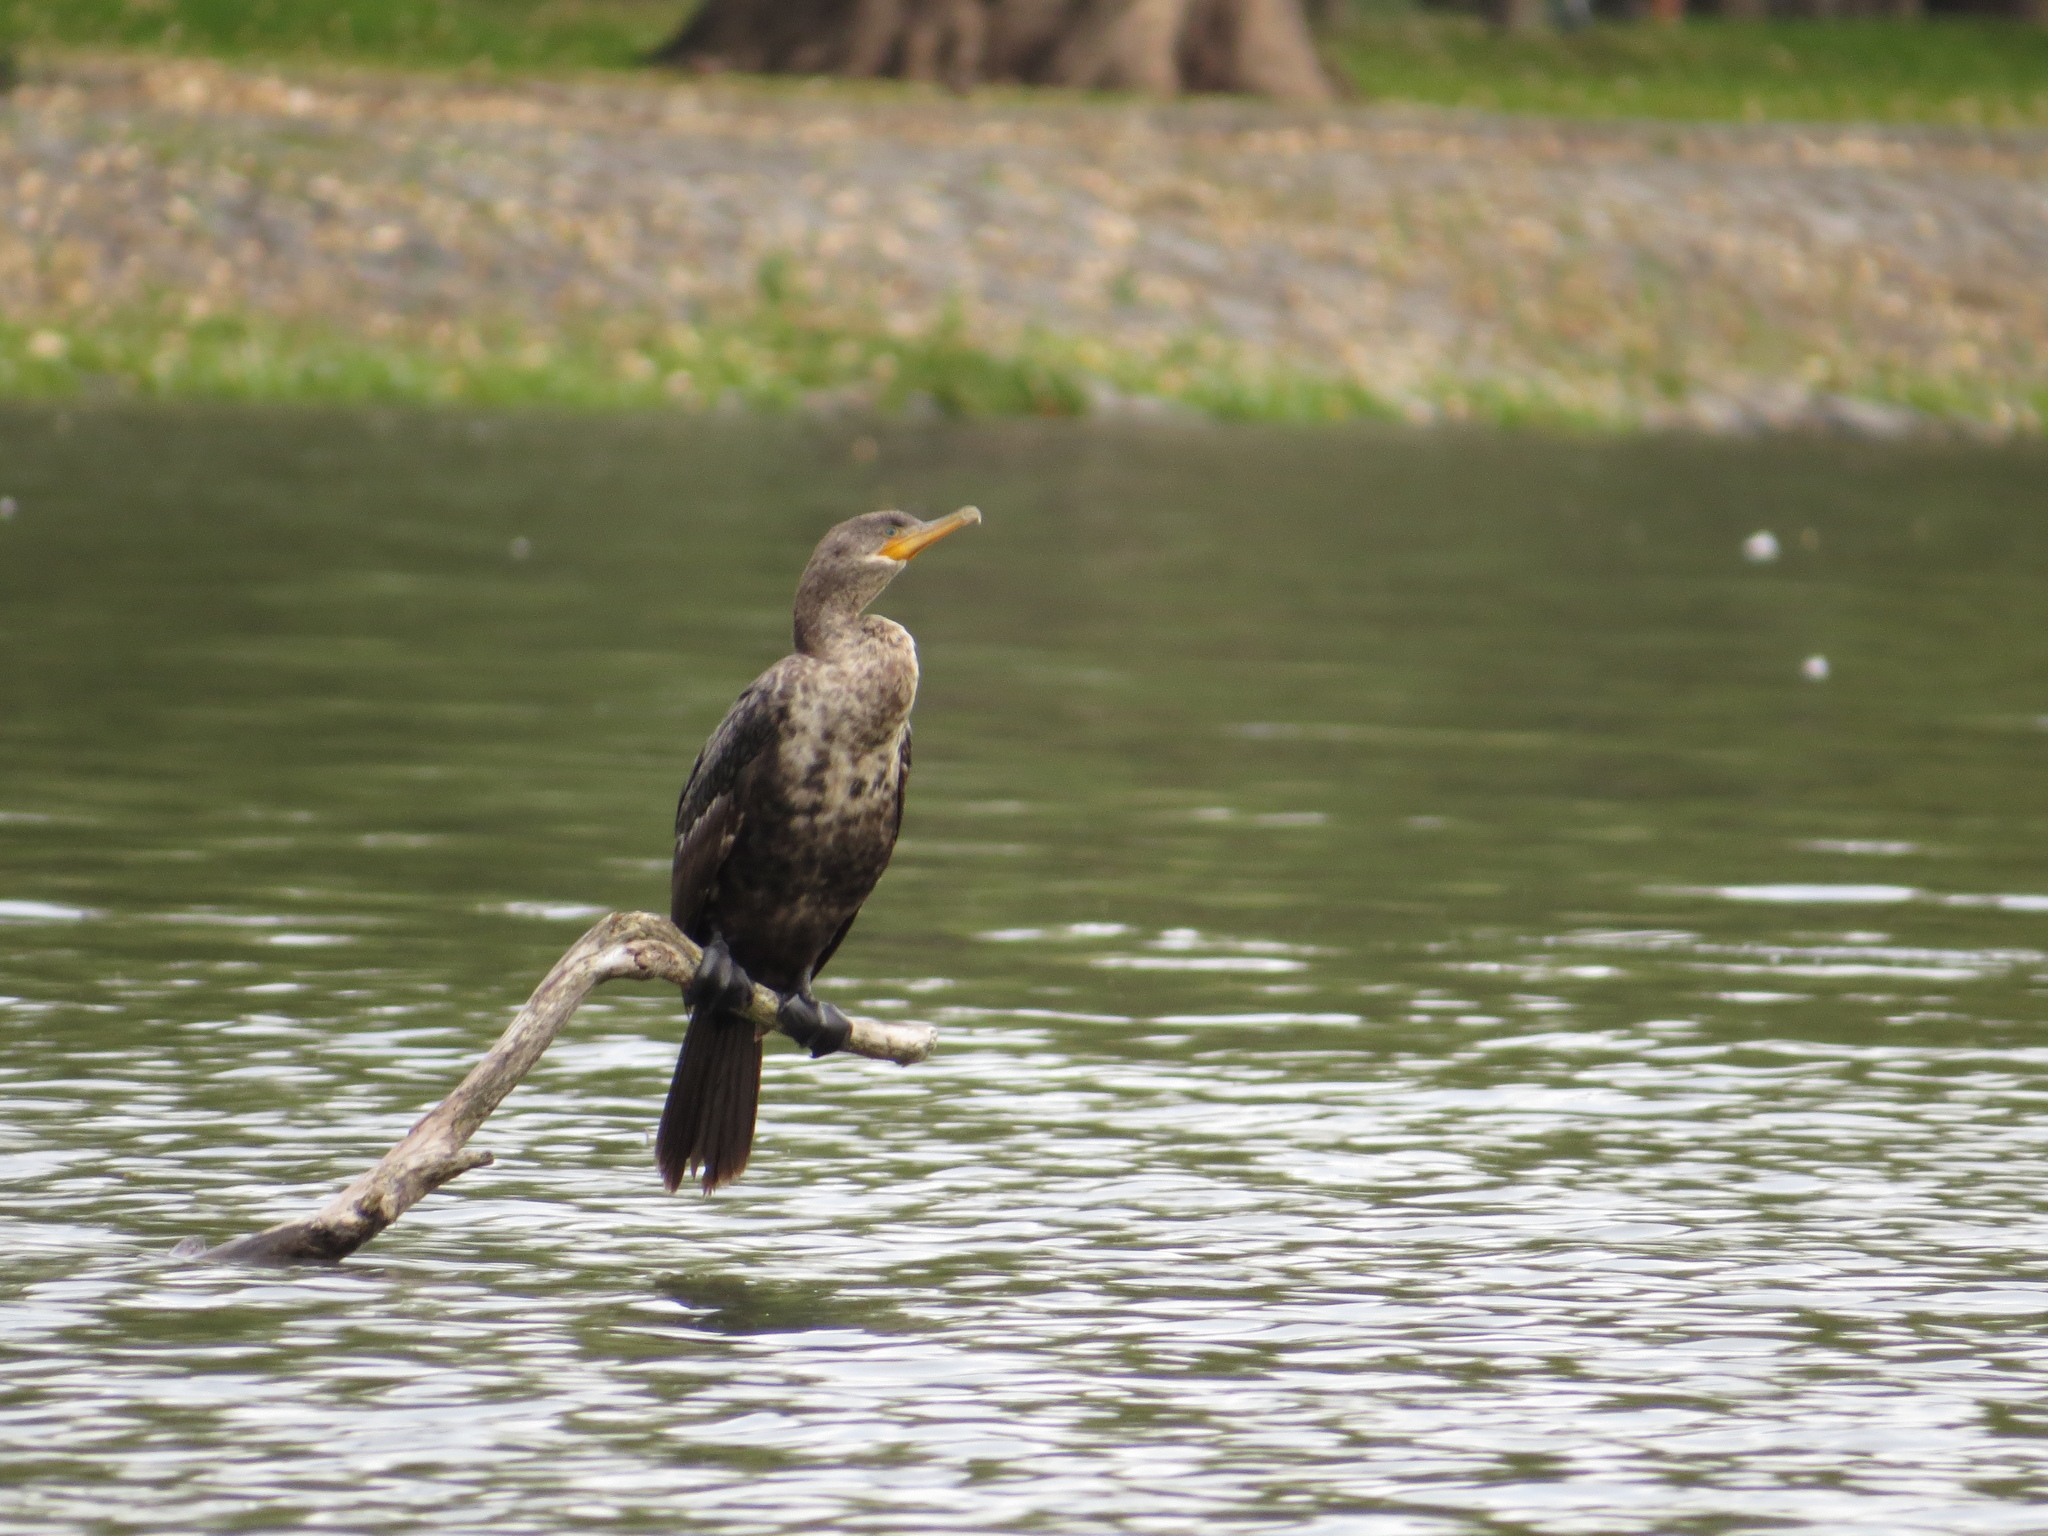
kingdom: Animalia
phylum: Chordata
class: Aves
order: Suliformes
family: Phalacrocoracidae
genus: Phalacrocorax
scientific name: Phalacrocorax brasilianus
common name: Neotropic cormorant
